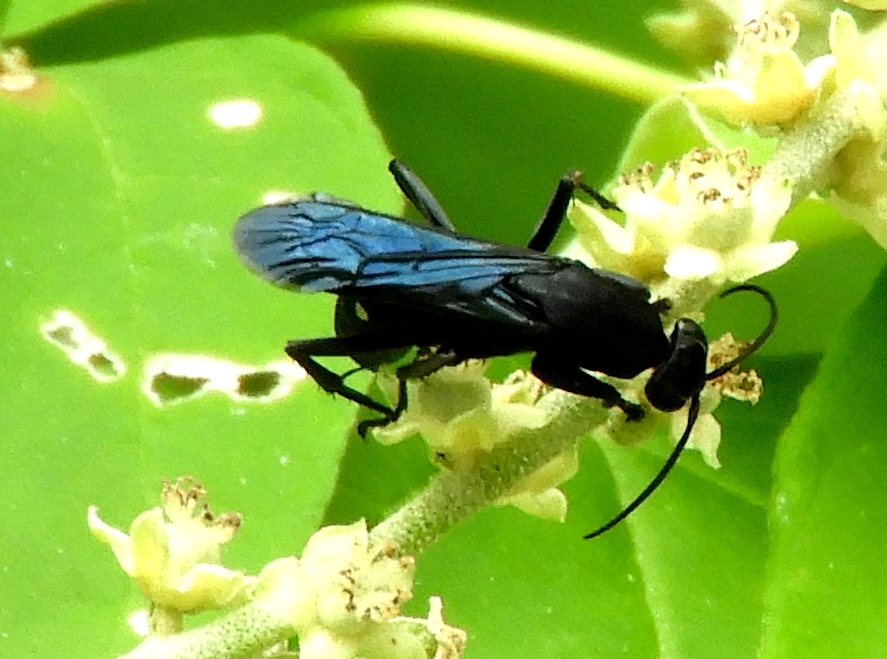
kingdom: Animalia
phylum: Arthropoda
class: Insecta
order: Hymenoptera
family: Pompilidae
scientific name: Pompilidae
